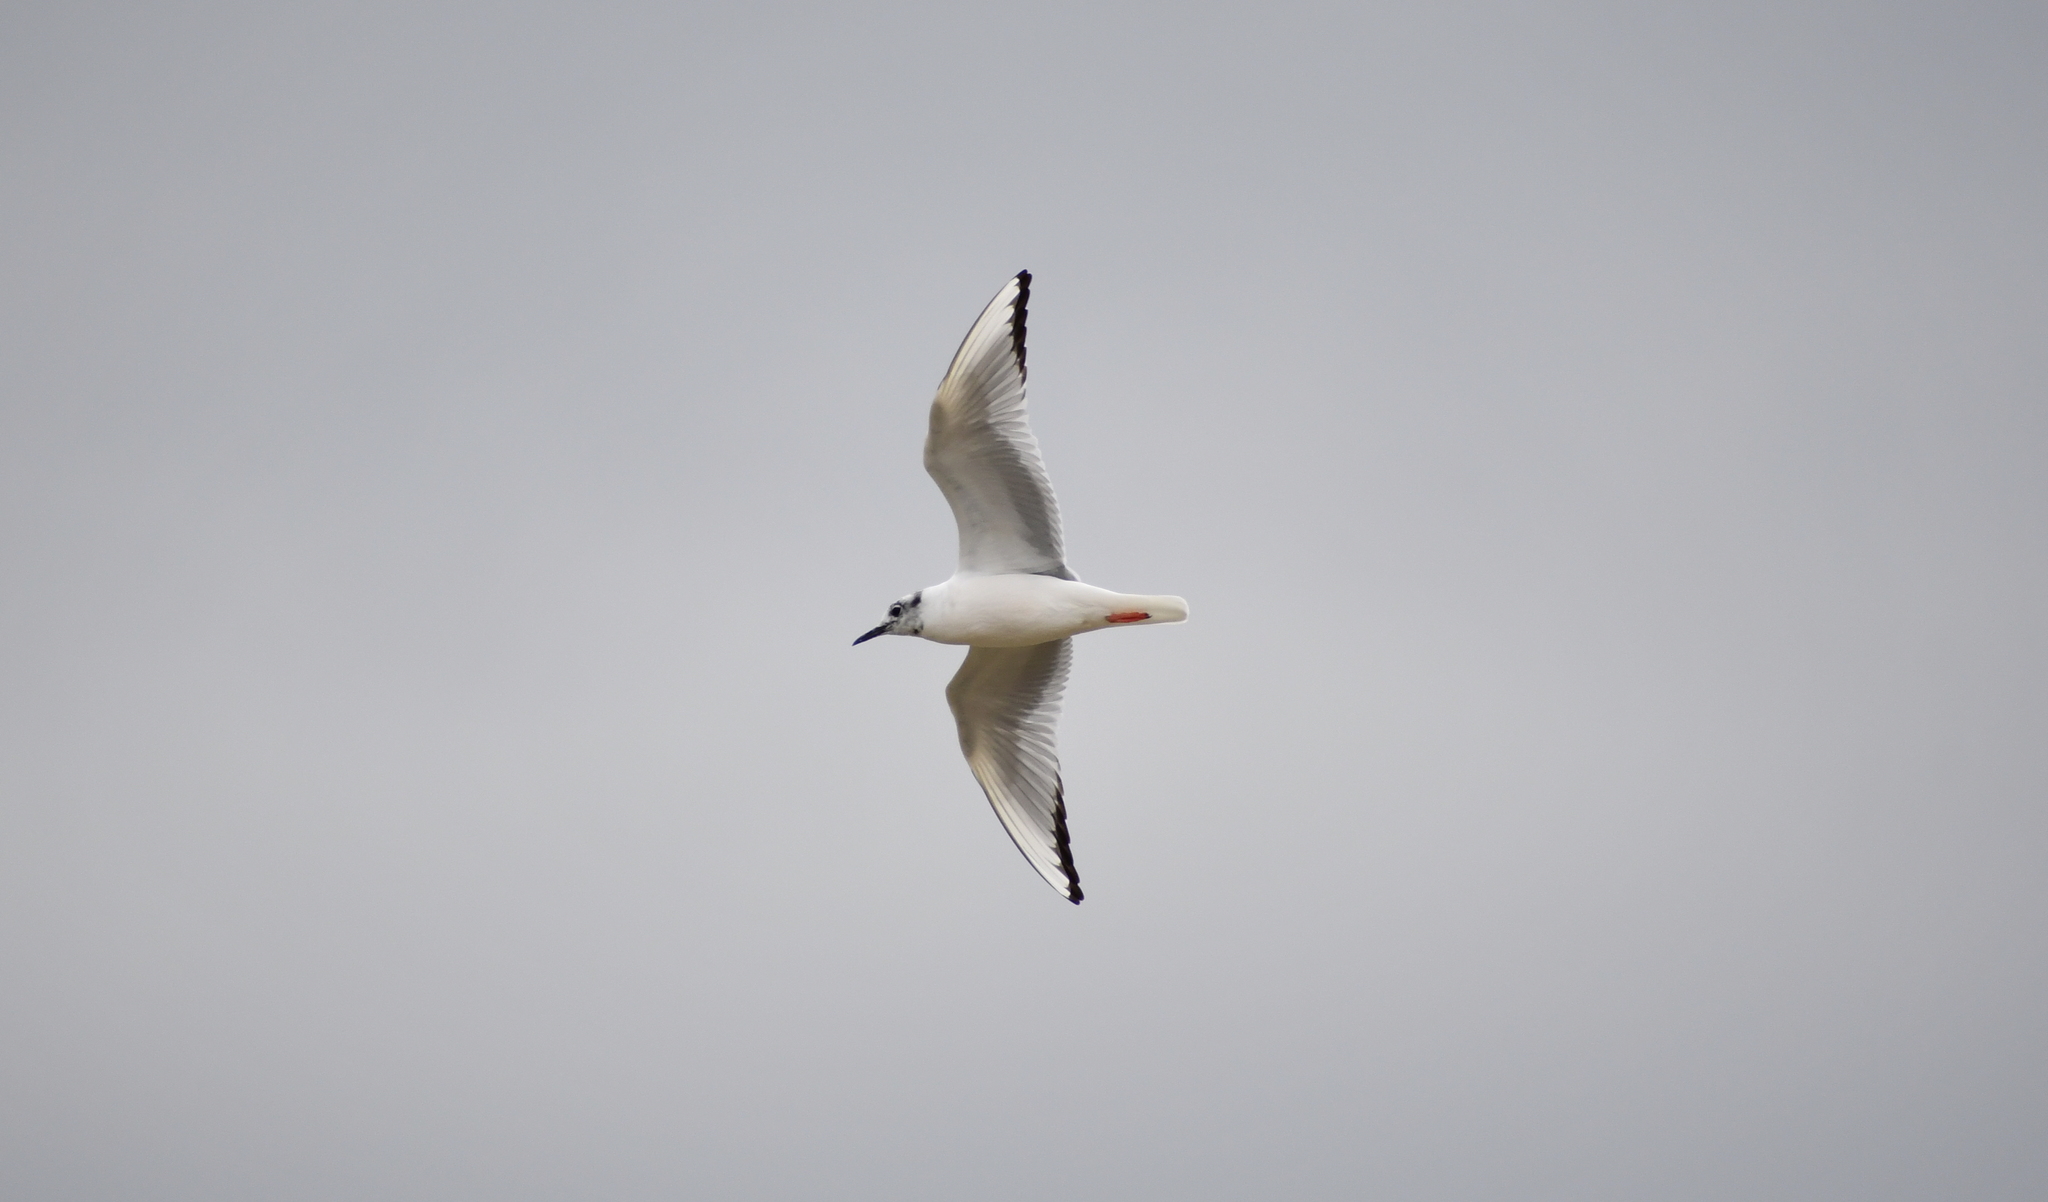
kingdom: Animalia
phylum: Chordata
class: Aves
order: Charadriiformes
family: Laridae
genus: Chroicocephalus
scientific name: Chroicocephalus philadelphia
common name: Bonaparte's gull
